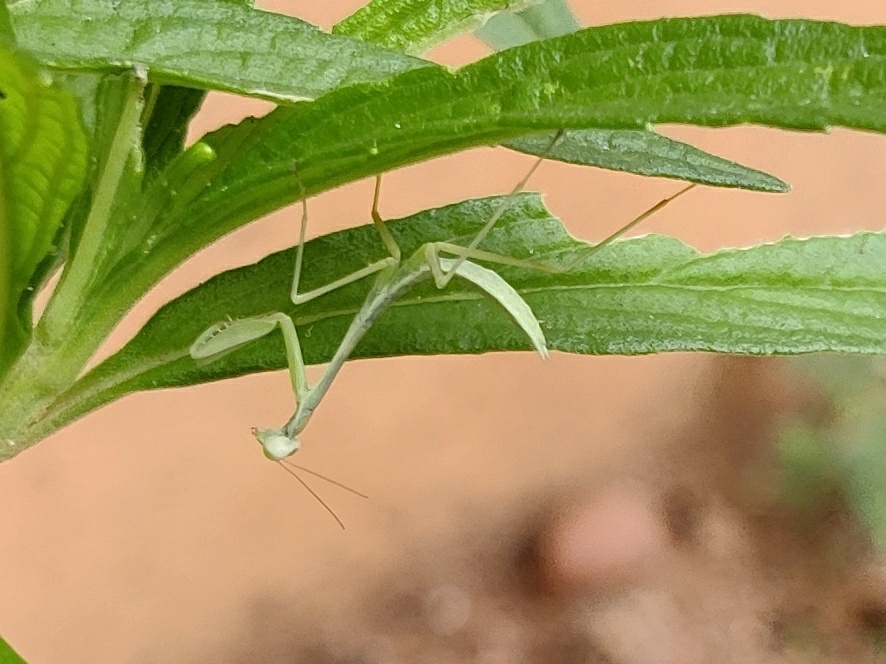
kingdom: Animalia
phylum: Arthropoda
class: Insecta
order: Mantodea
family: Mantidae
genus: Hierodula
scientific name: Hierodula membranacea
